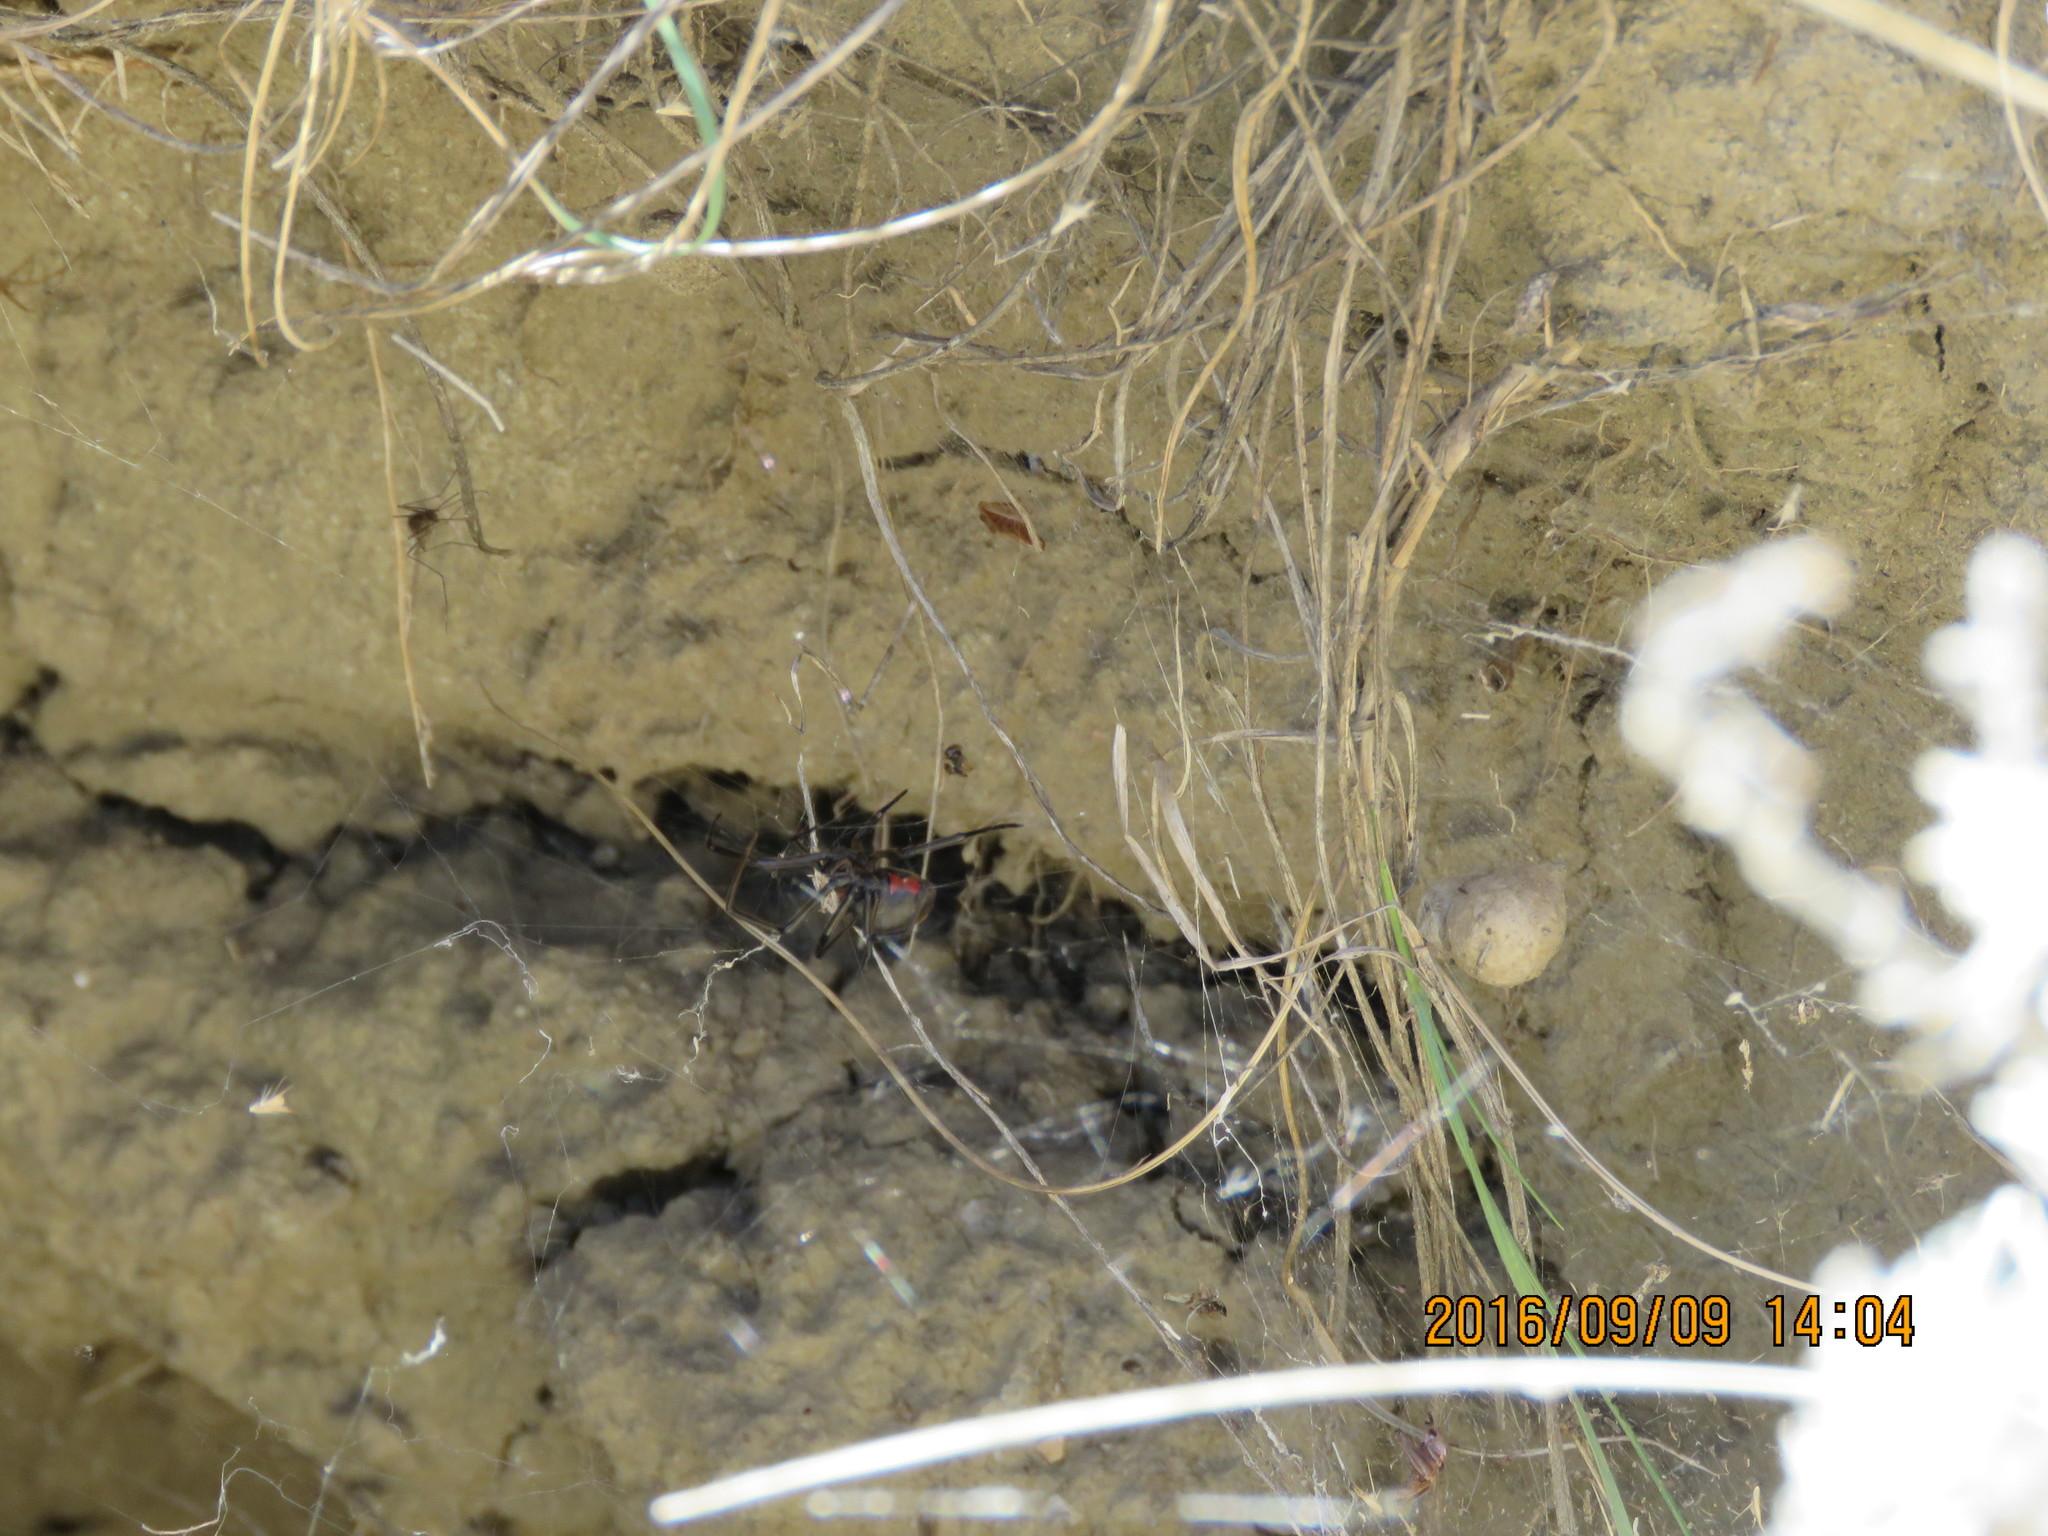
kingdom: Animalia
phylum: Arthropoda
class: Arachnida
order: Araneae
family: Theridiidae
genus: Latrodectus
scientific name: Latrodectus hesperus
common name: Western black widow
